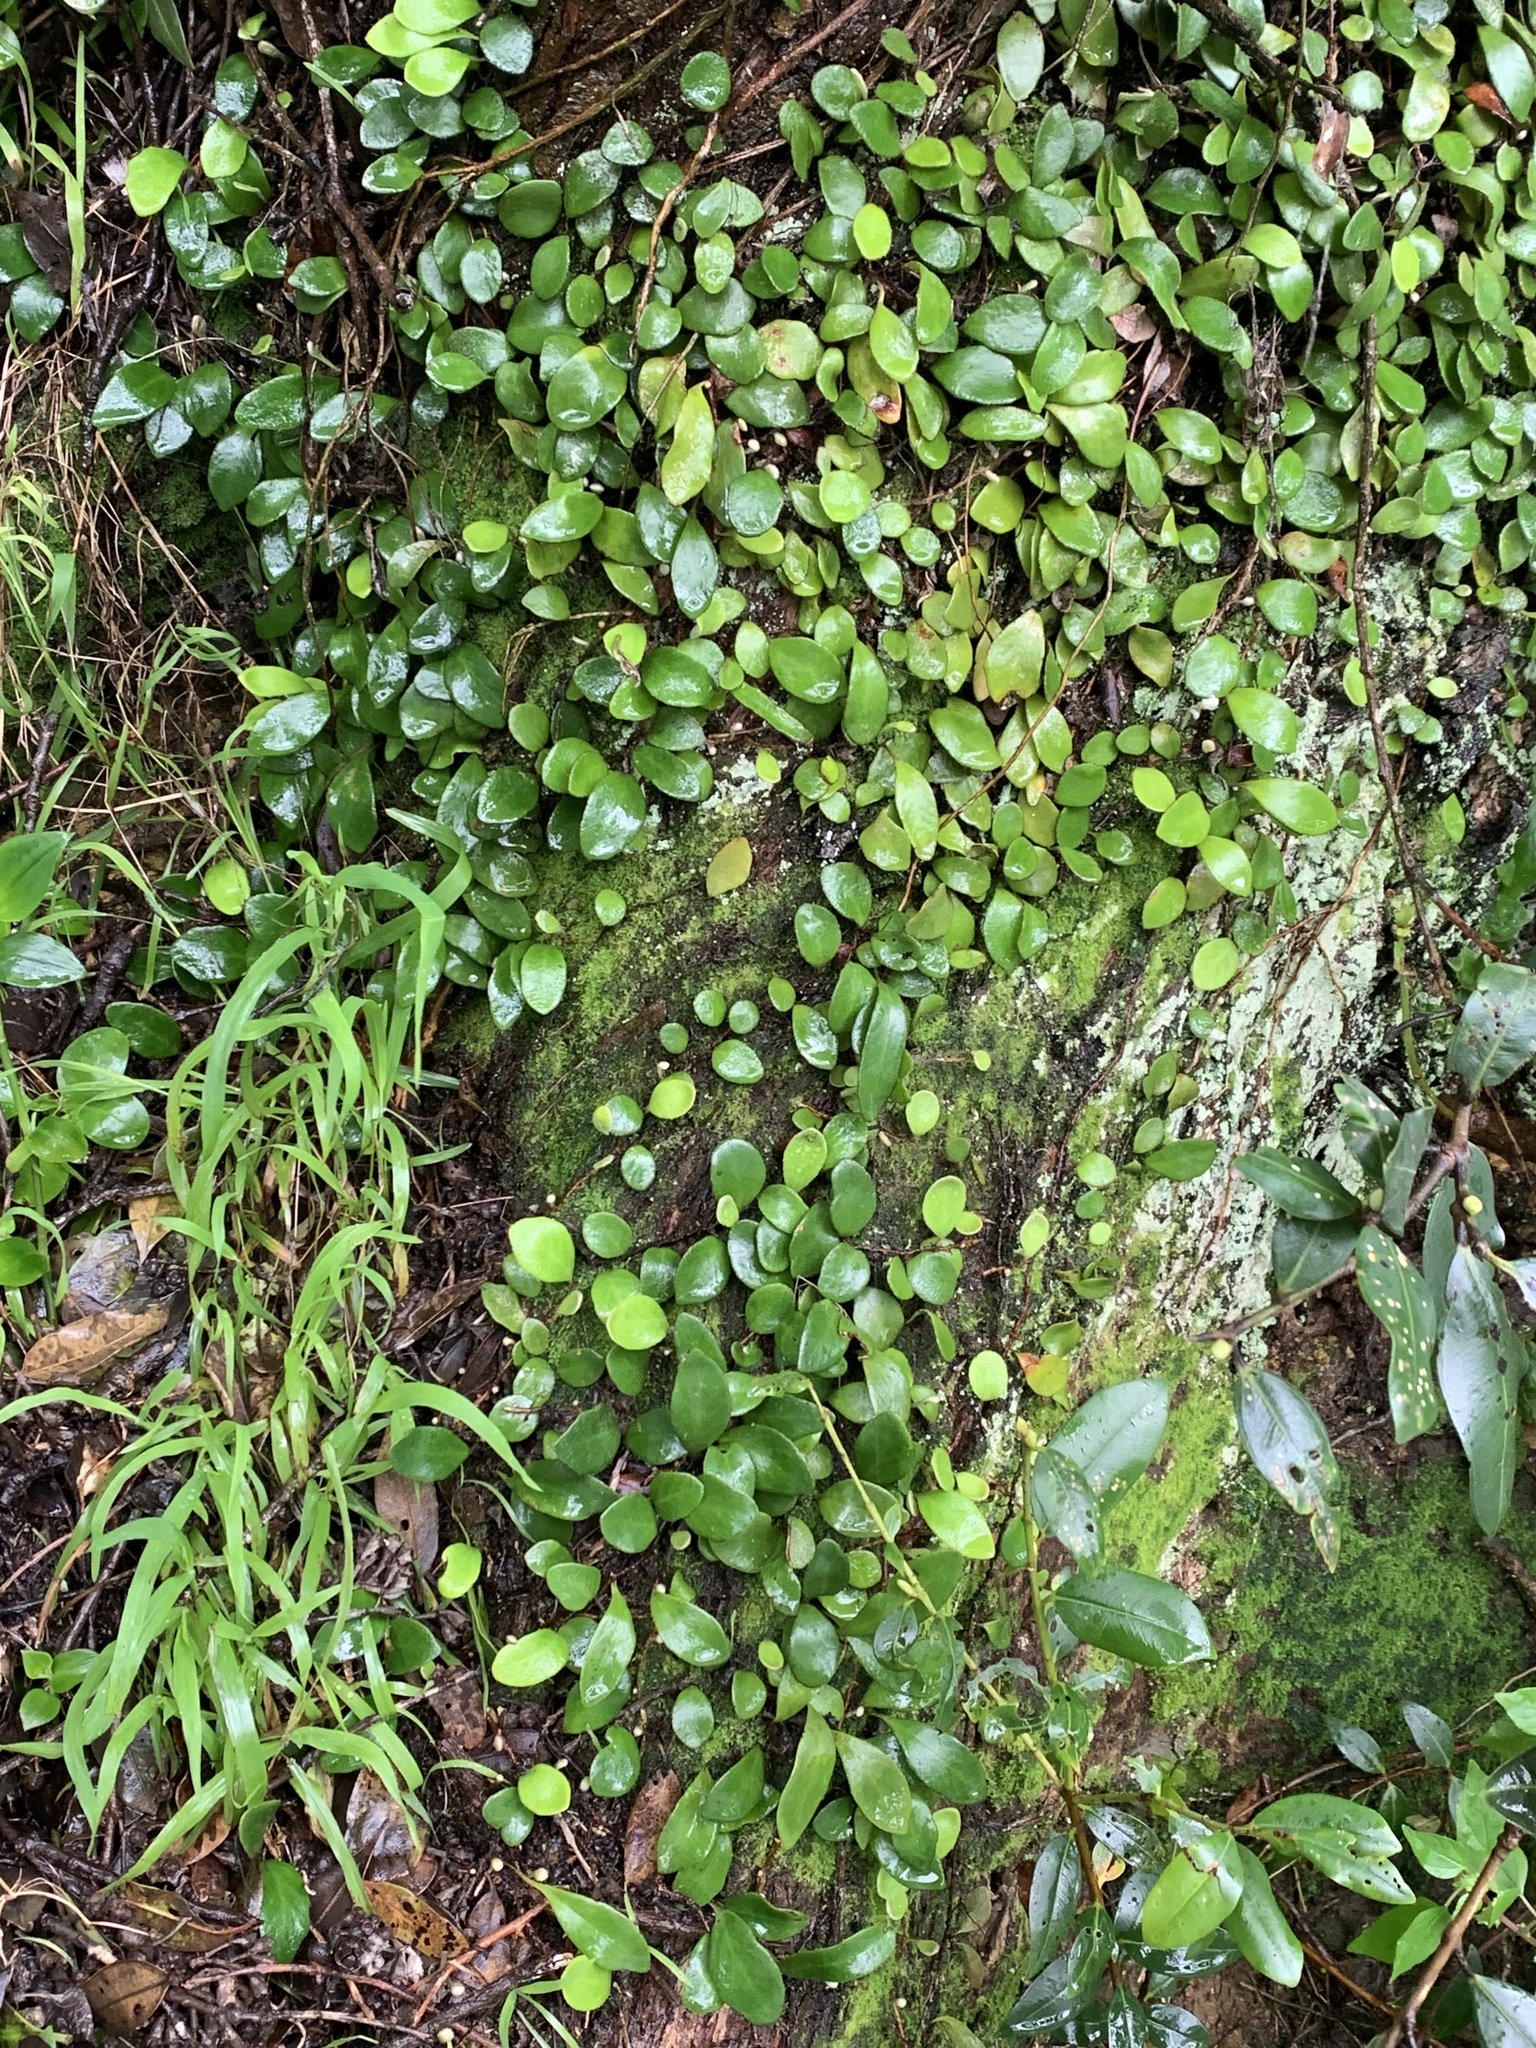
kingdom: Plantae
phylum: Tracheophyta
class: Polypodiopsida
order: Polypodiales
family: Polypodiaceae
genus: Pyrrosia
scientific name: Pyrrosia eleagnifolia
